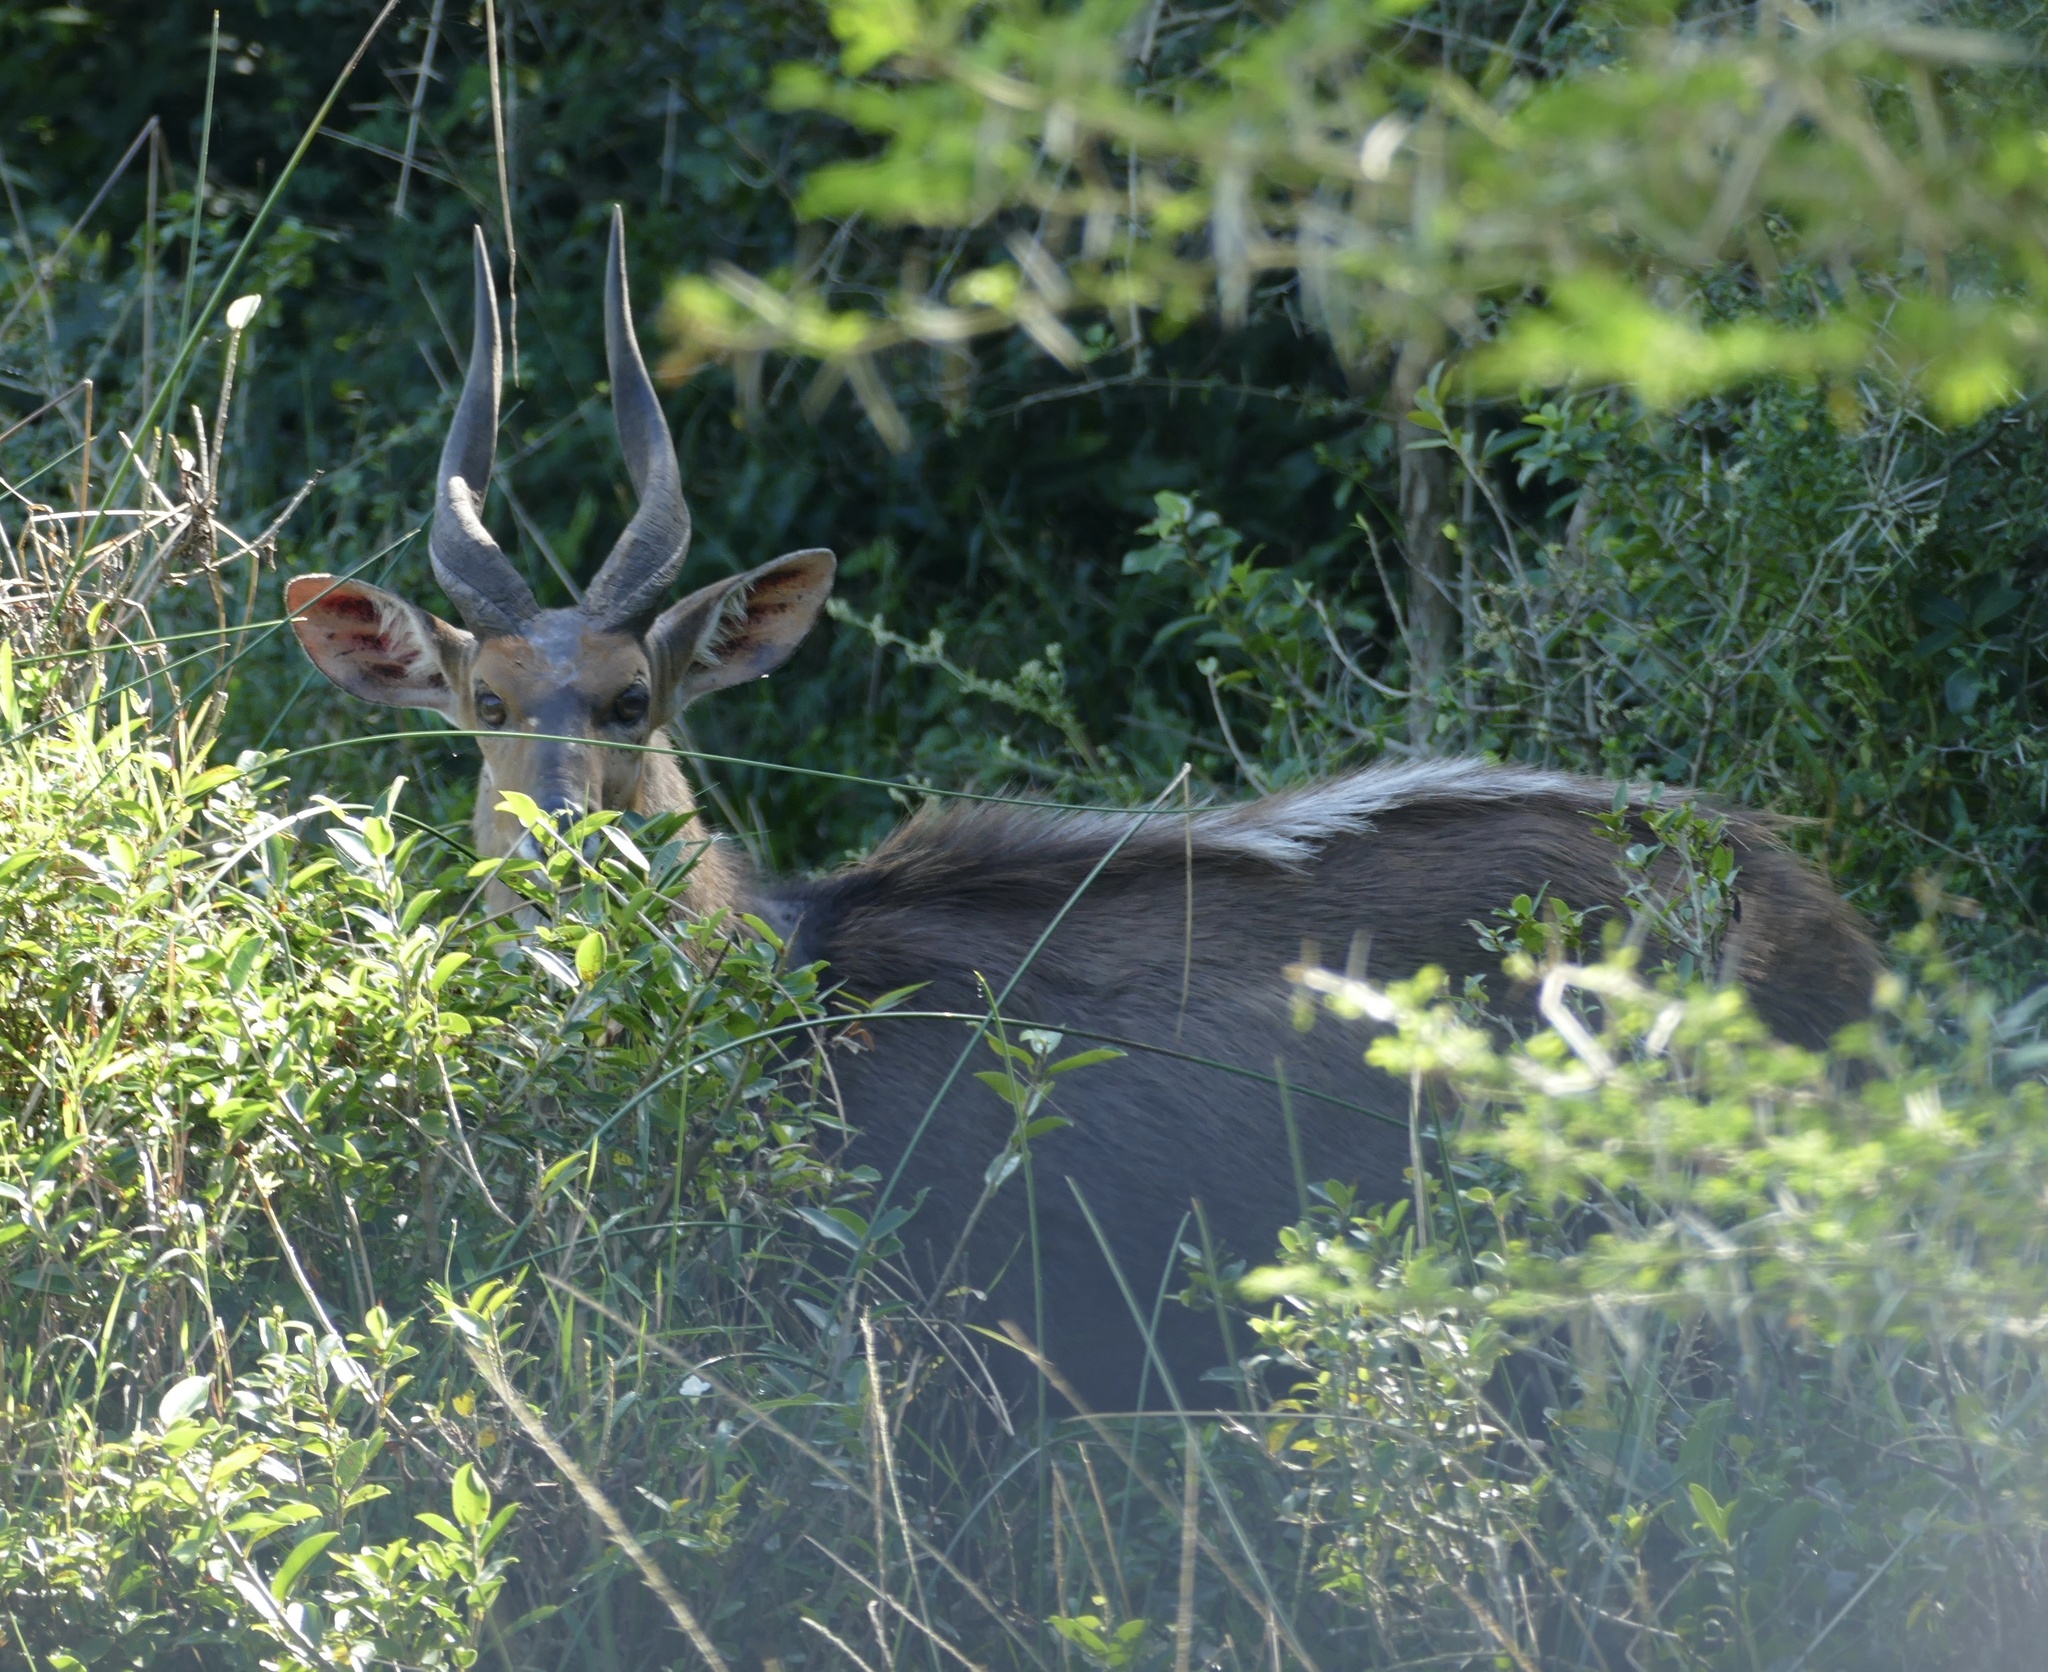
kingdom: Animalia
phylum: Chordata
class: Mammalia
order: Artiodactyla
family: Bovidae
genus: Tragelaphus
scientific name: Tragelaphus scriptus
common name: Bushbuck
